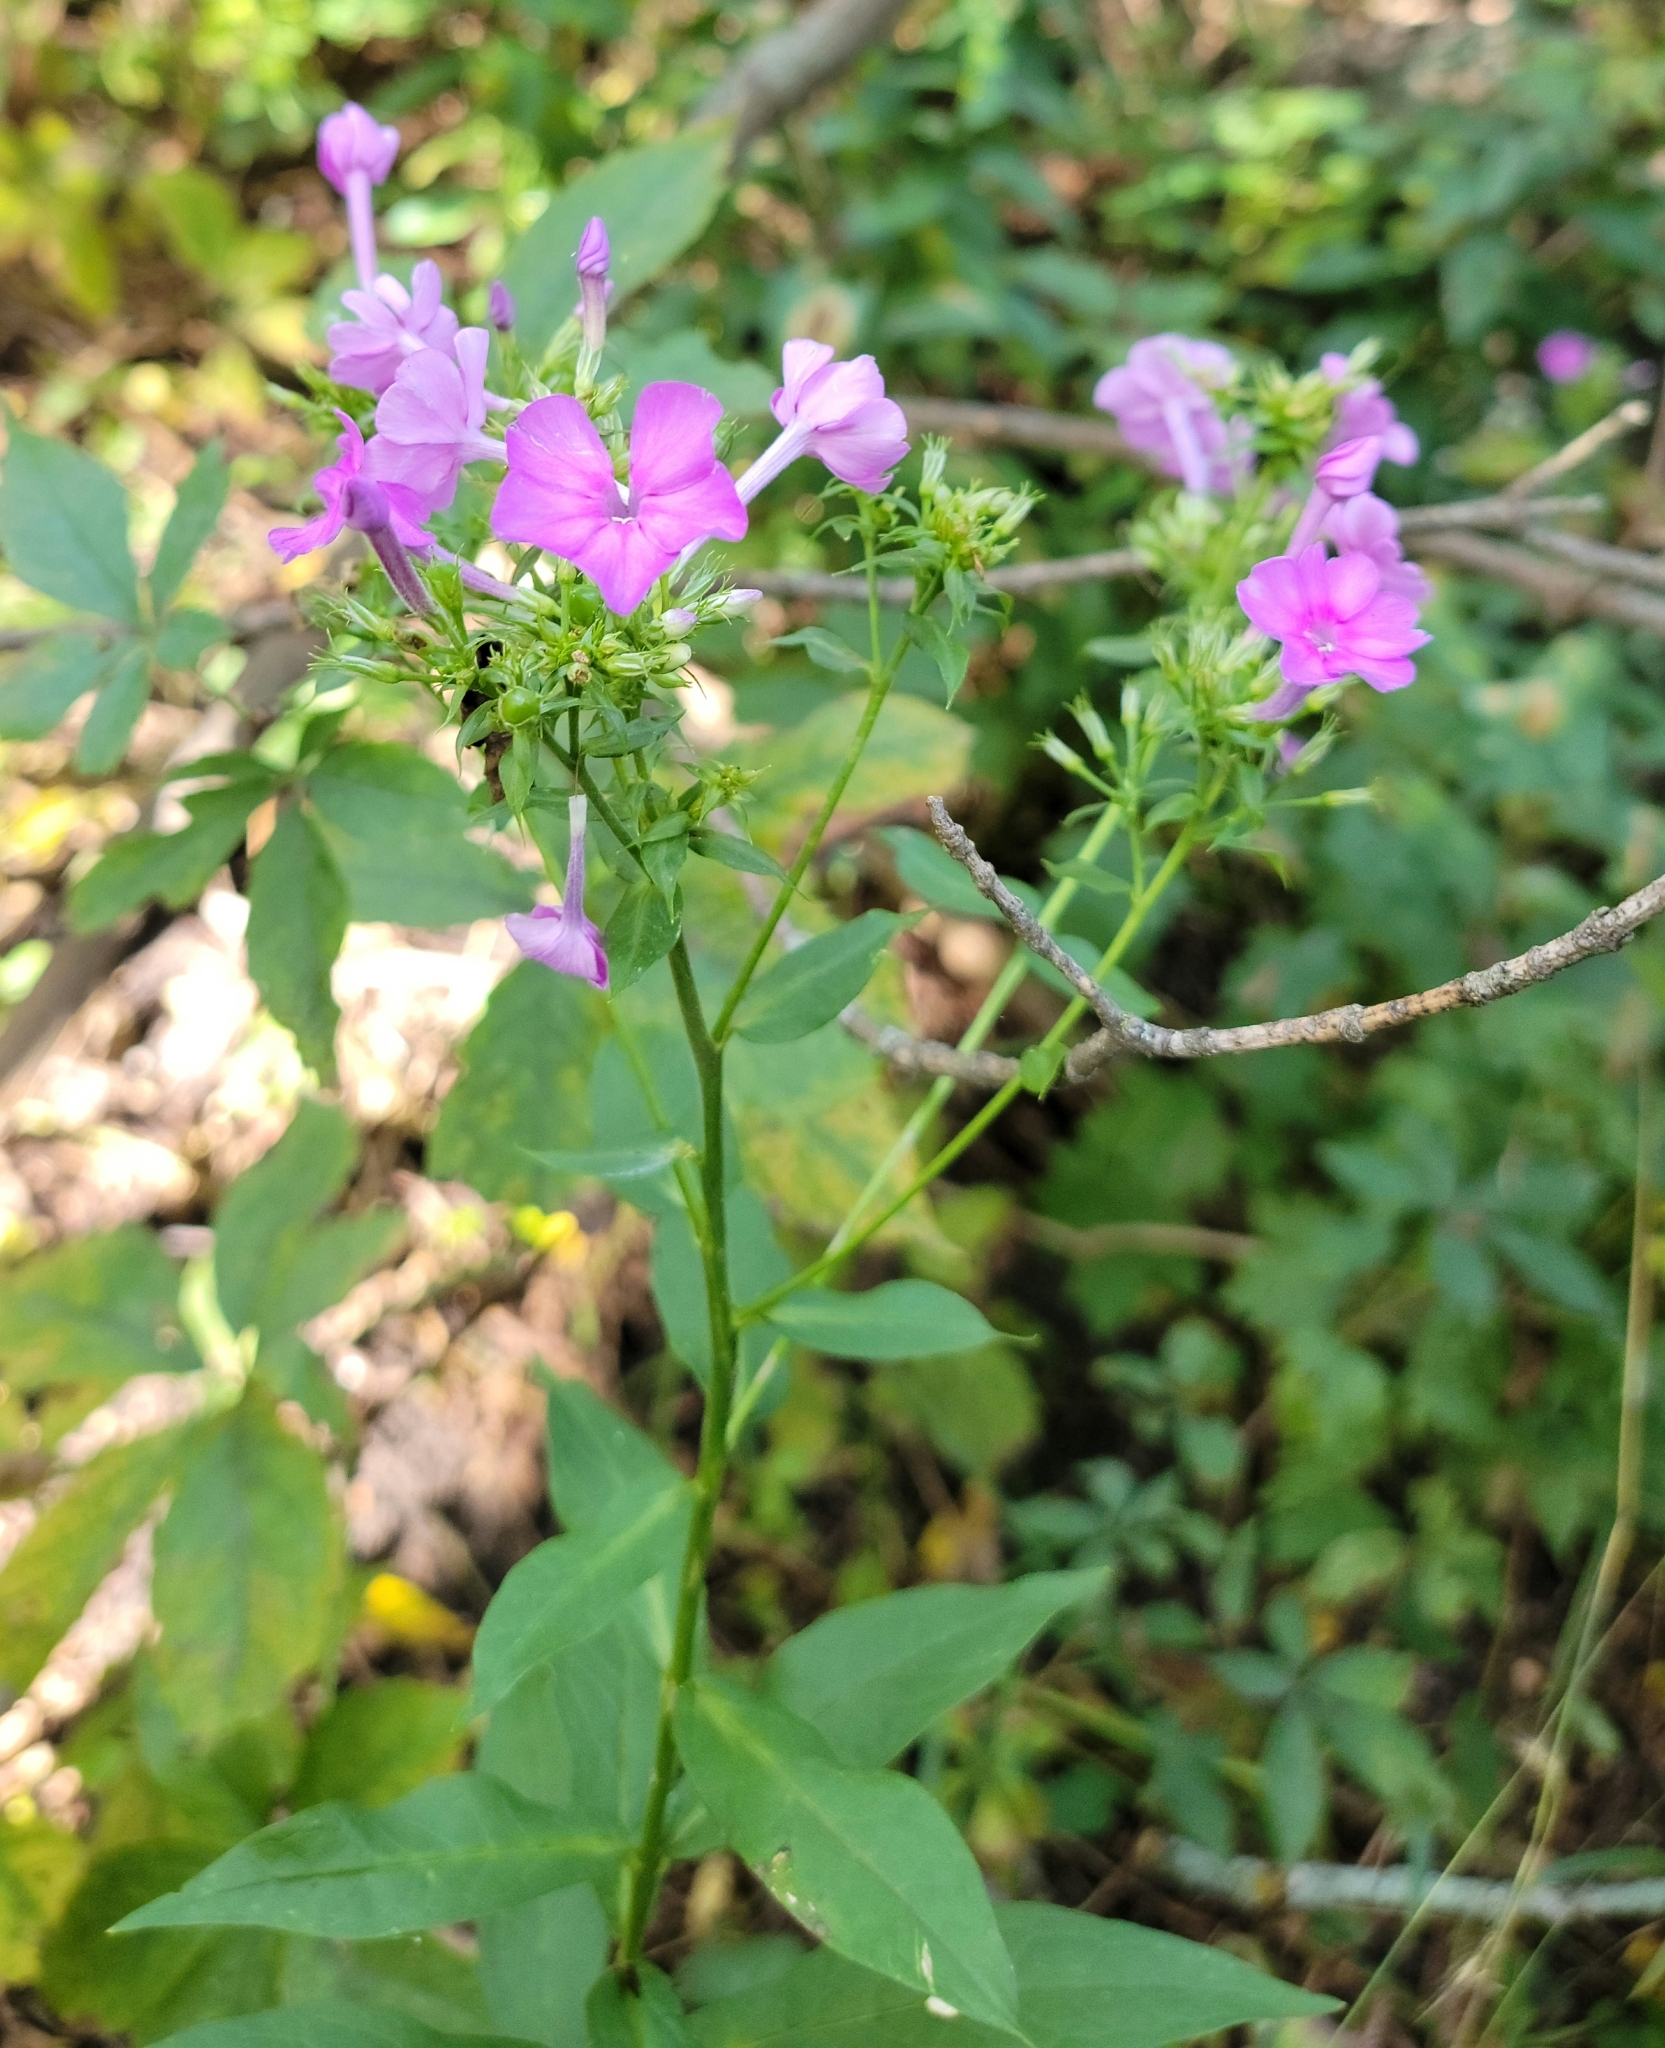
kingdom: Plantae
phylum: Tracheophyta
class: Magnoliopsida
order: Ericales
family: Polemoniaceae
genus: Phlox
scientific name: Phlox paniculata
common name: Fall phlox
